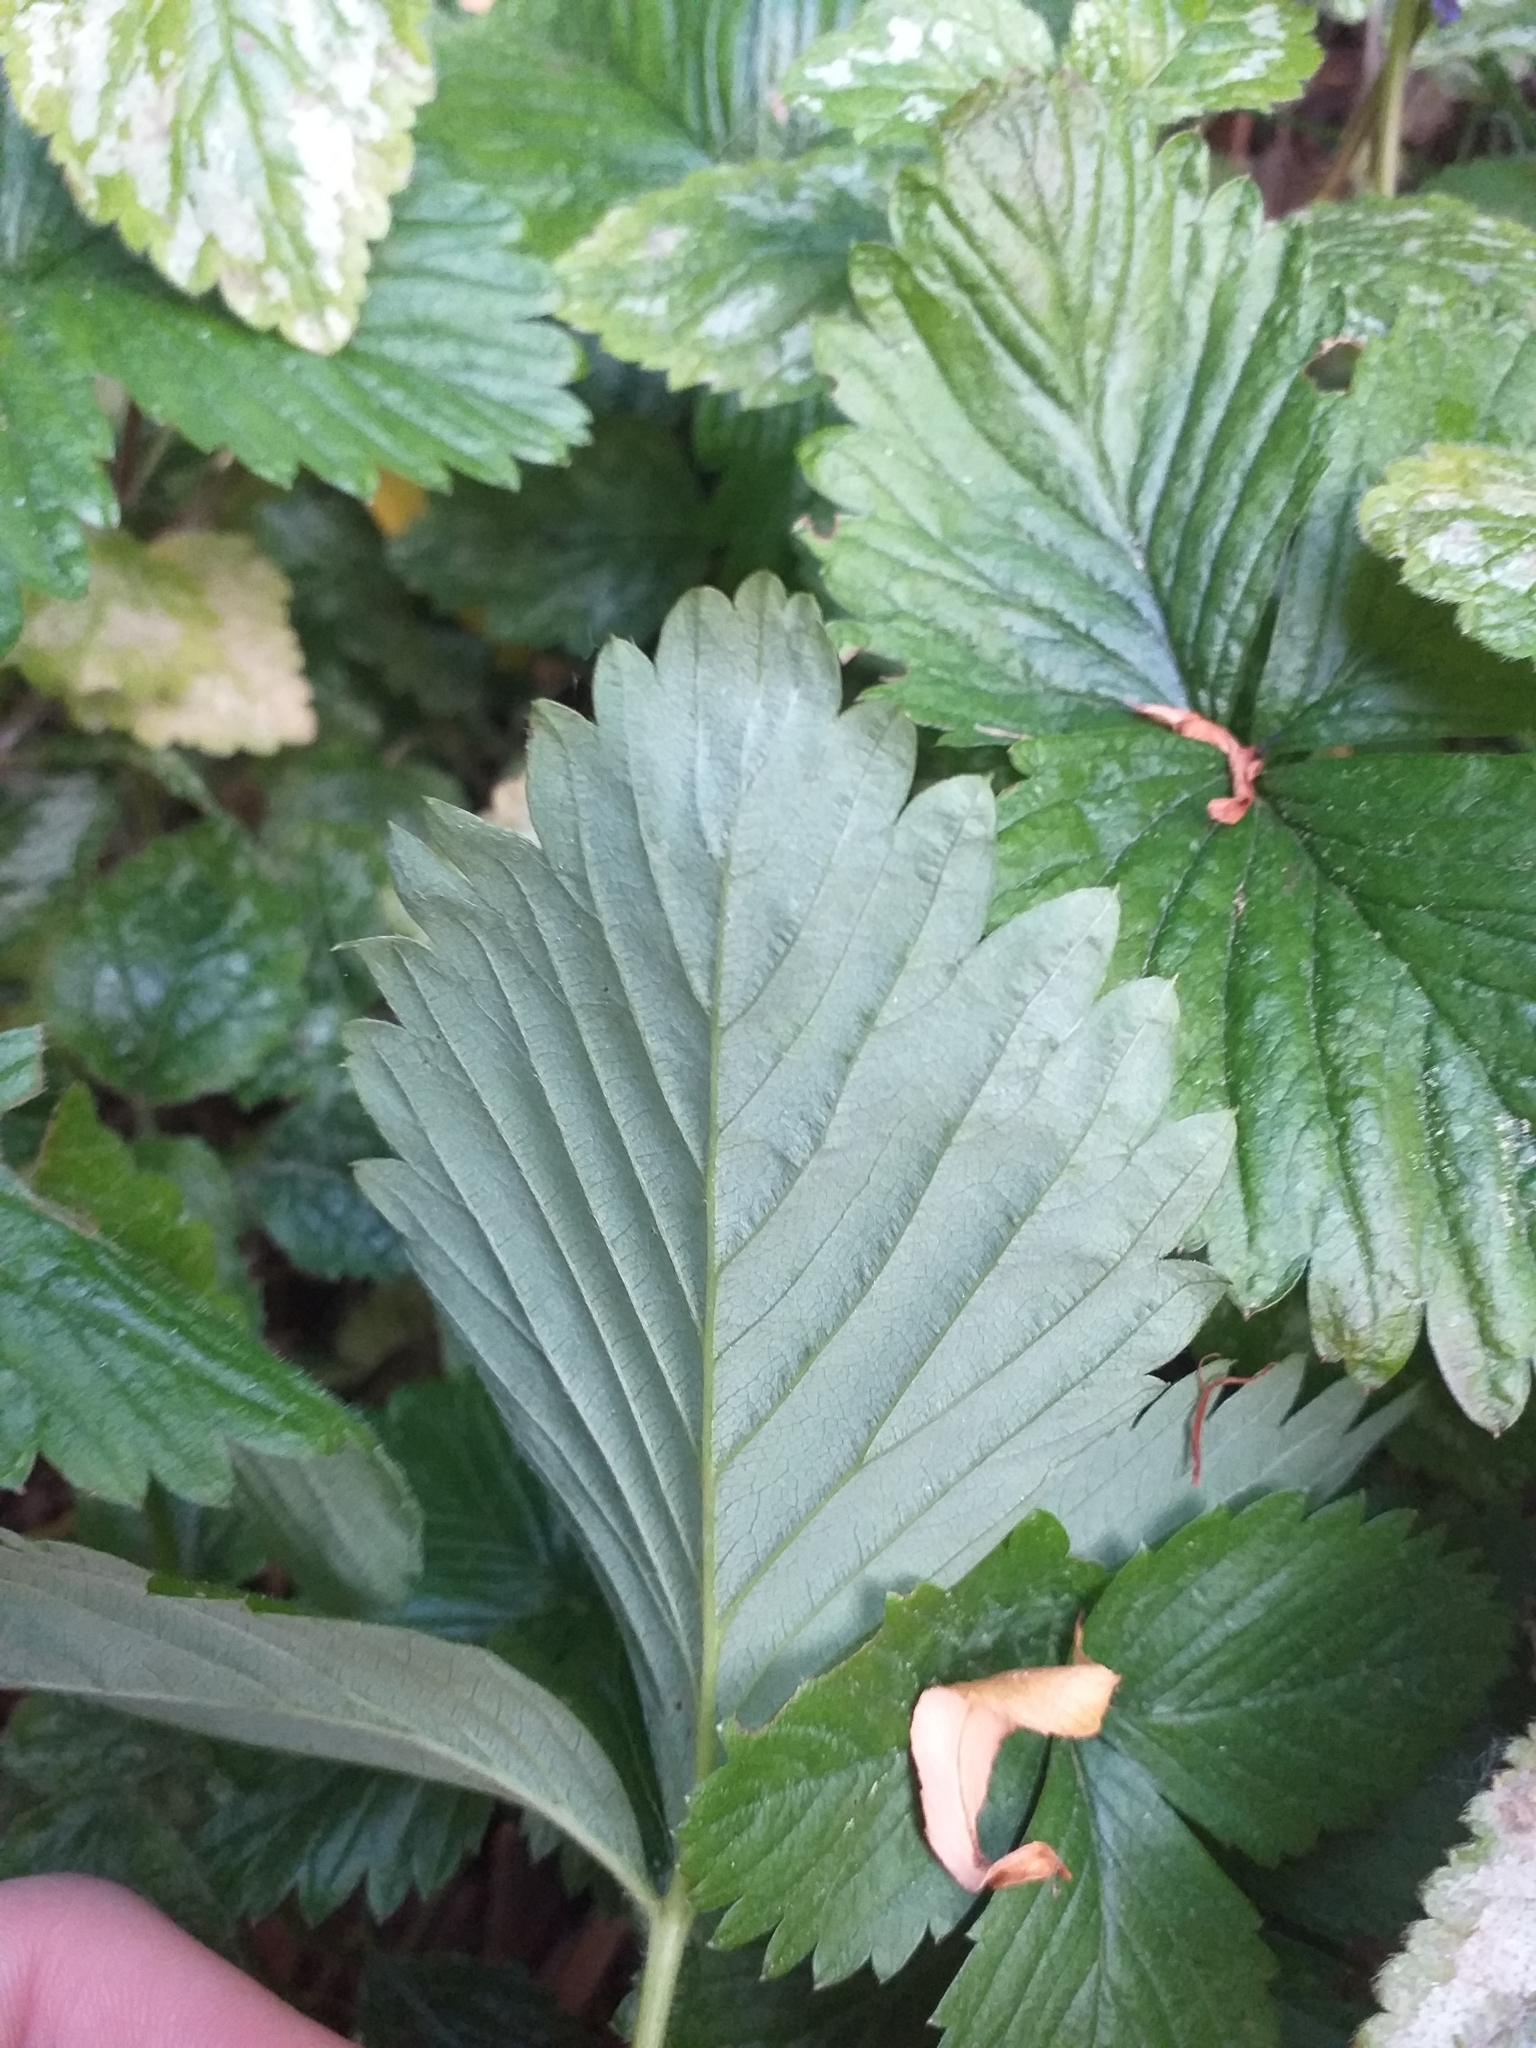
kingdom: Plantae
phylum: Tracheophyta
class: Magnoliopsida
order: Rosales
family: Rosaceae
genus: Fragaria
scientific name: Fragaria vesca
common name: Wild strawberry
